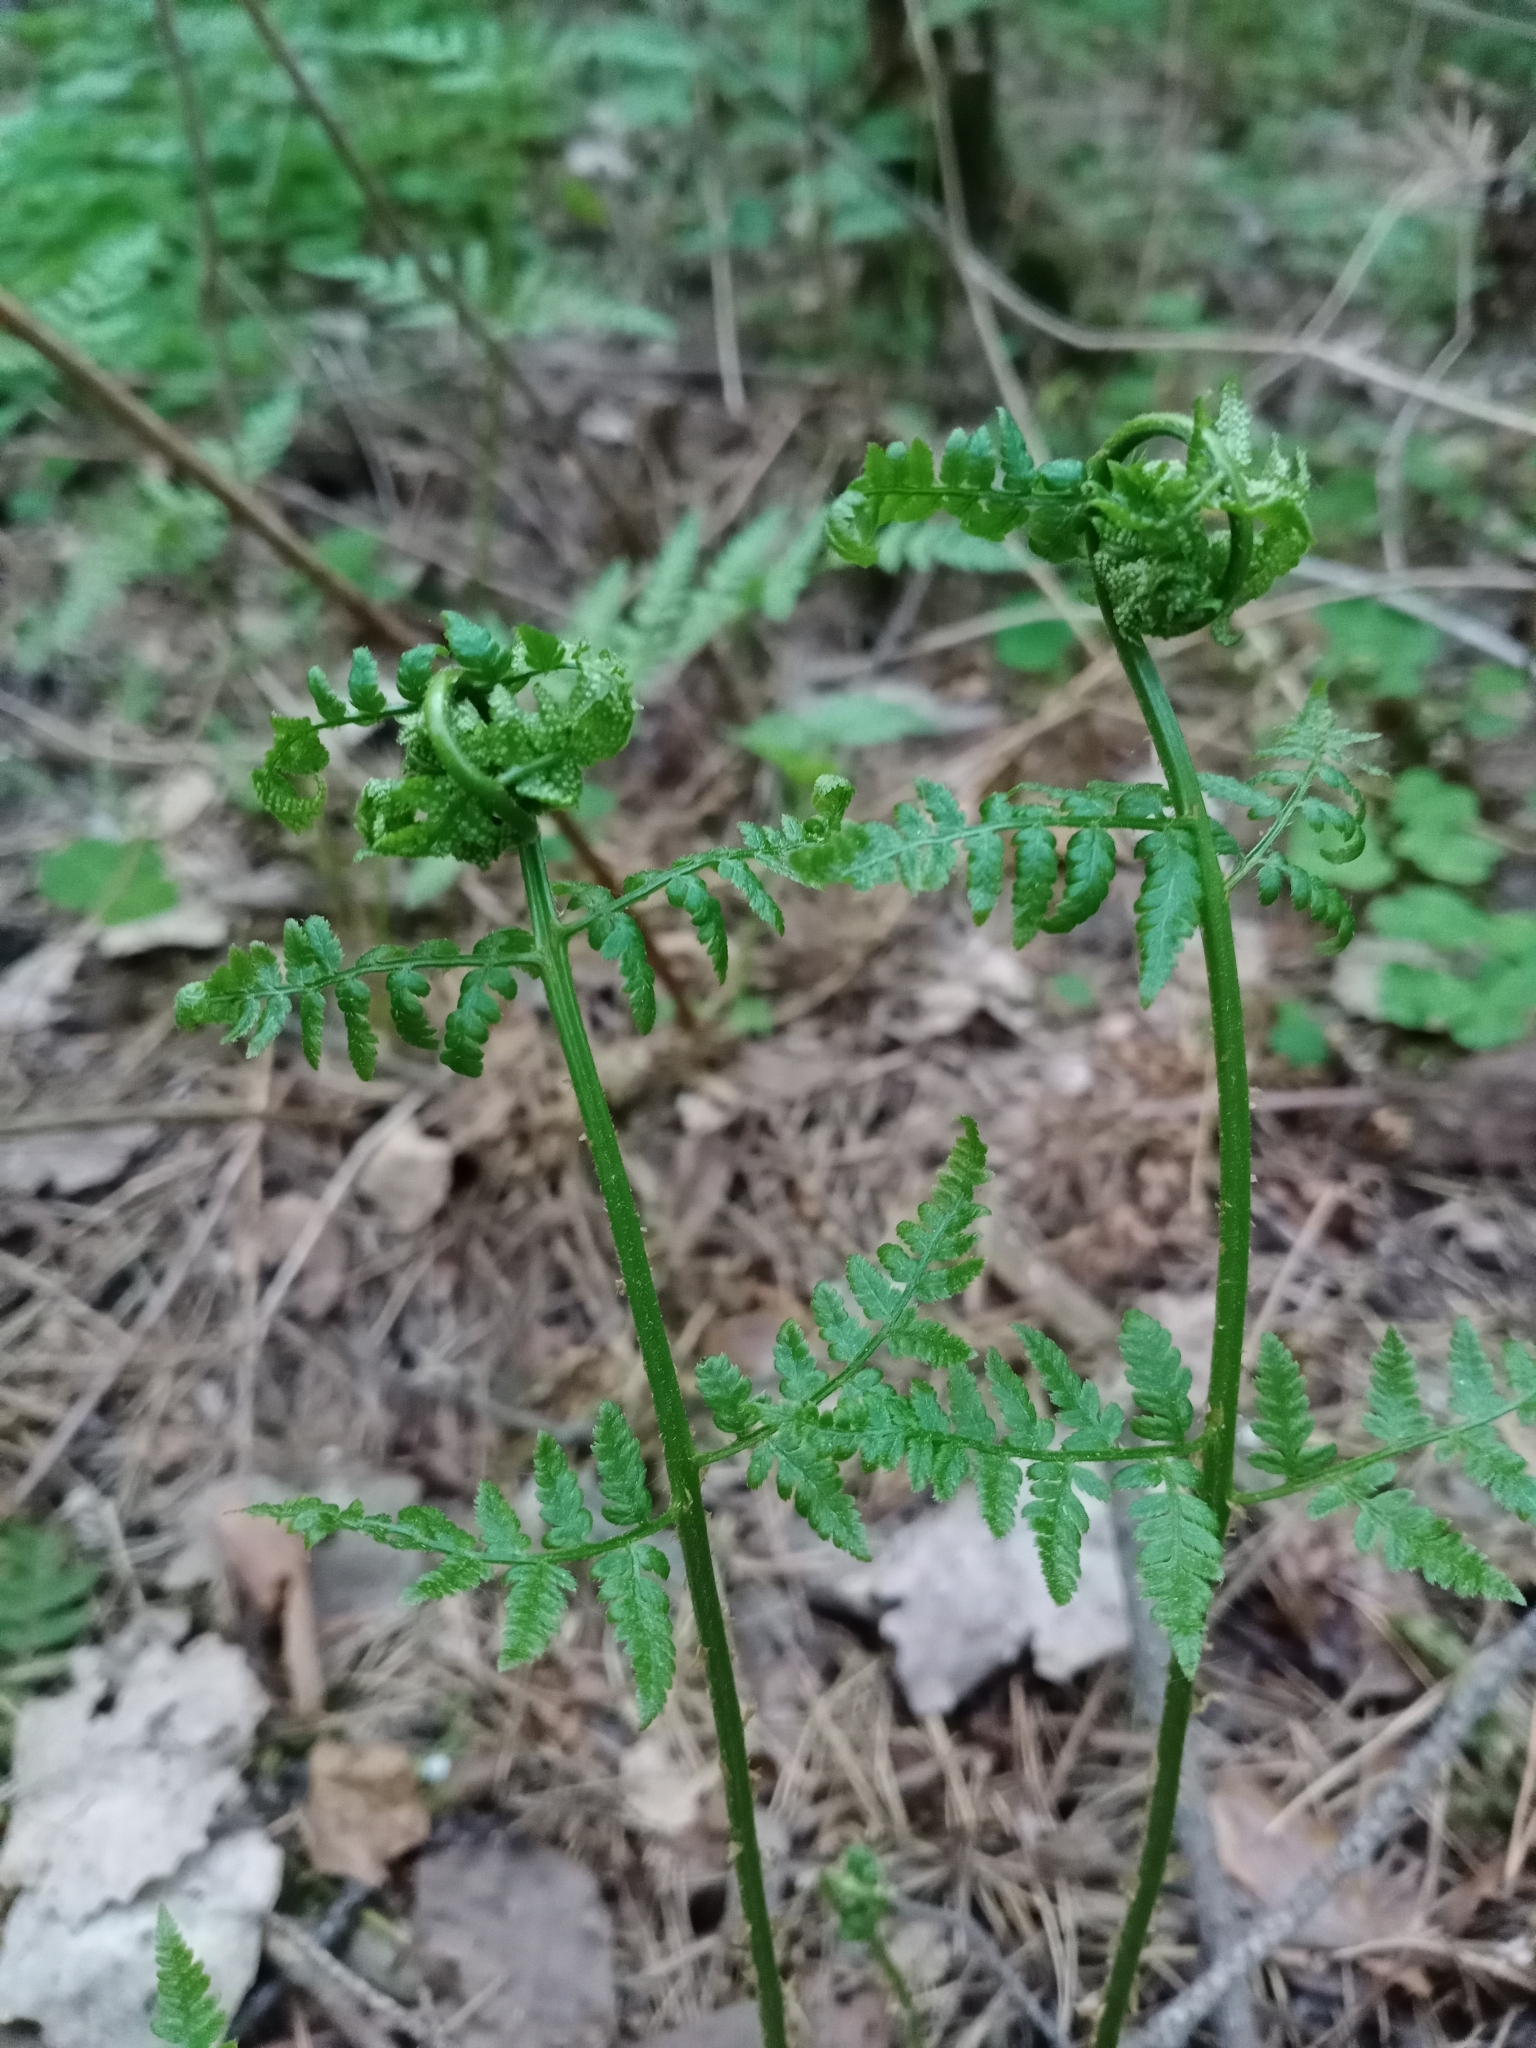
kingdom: Plantae
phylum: Tracheophyta
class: Polypodiopsida
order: Polypodiales
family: Dryopteridaceae
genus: Dryopteris
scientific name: Dryopteris carthusiana
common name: Narrow buckler-fern
